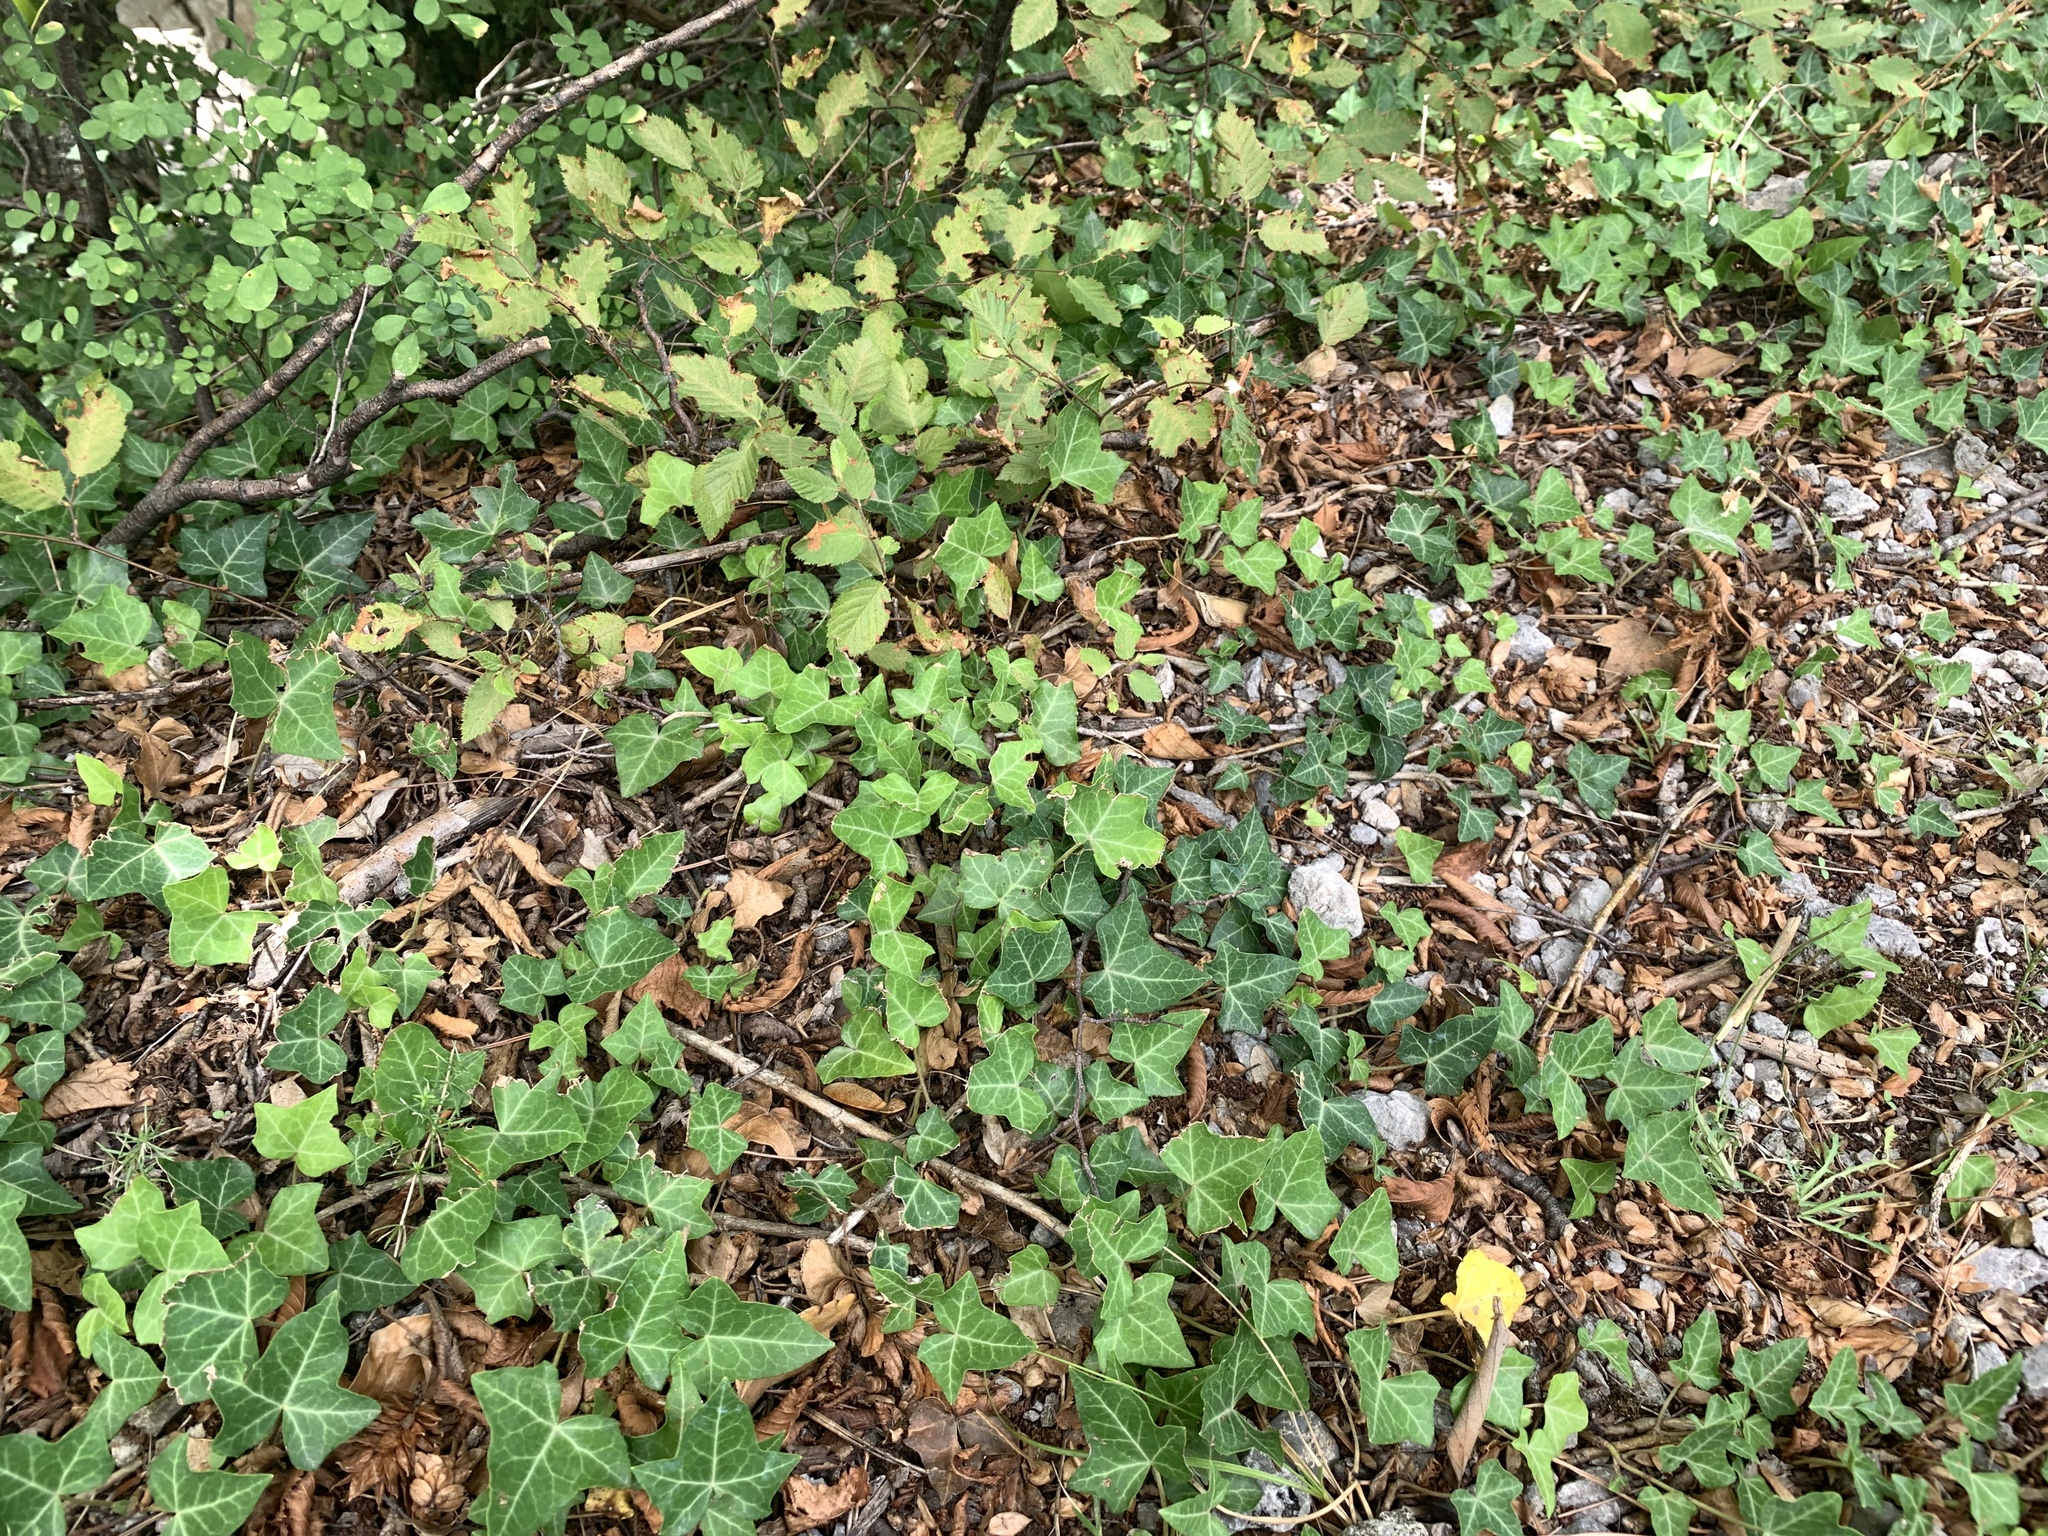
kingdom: Plantae
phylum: Tracheophyta
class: Magnoliopsida
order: Apiales
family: Araliaceae
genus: Hedera
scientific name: Hedera helix
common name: Ivy
